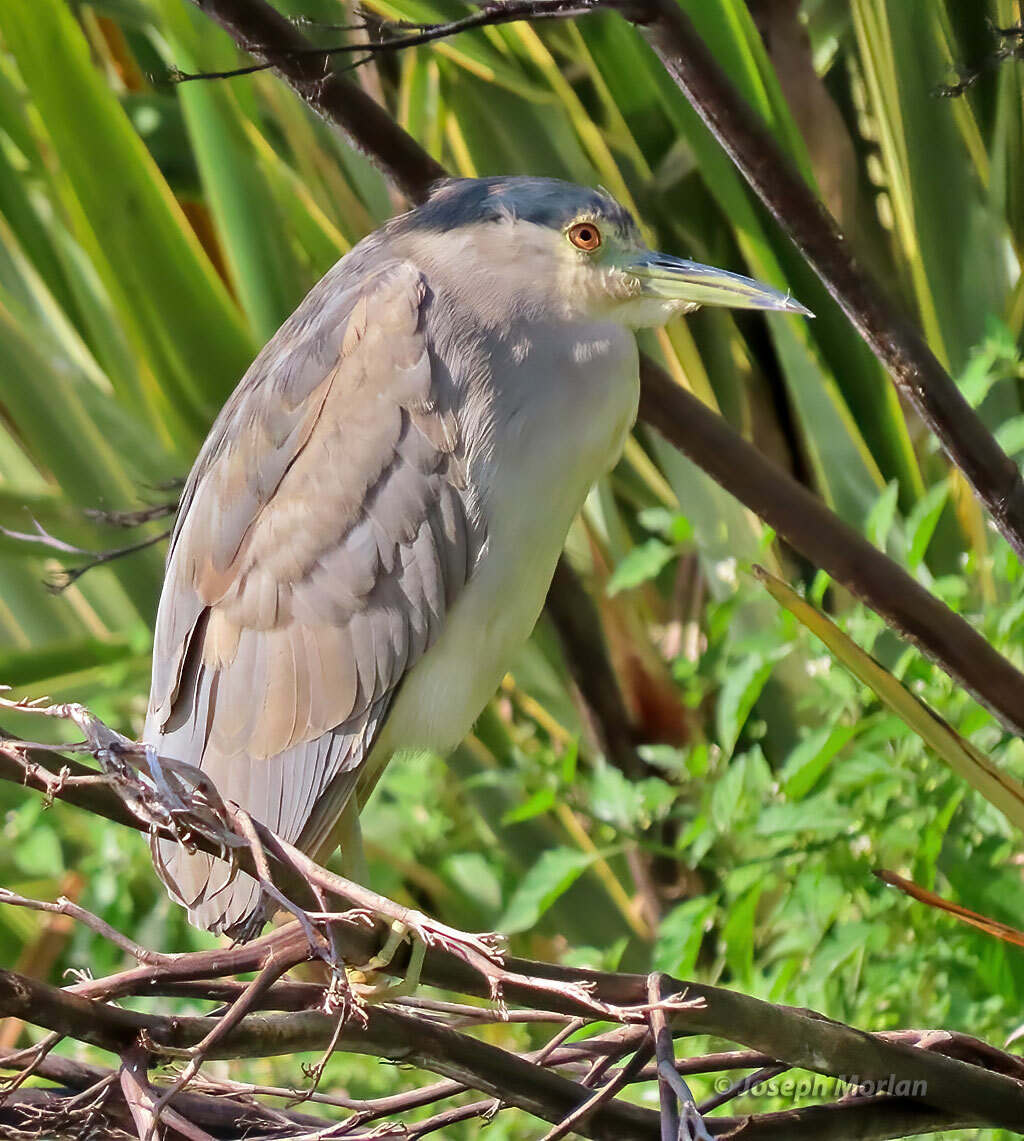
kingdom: Animalia
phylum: Chordata
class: Aves
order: Pelecaniformes
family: Ardeidae
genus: Nycticorax
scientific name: Nycticorax nycticorax
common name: Black-crowned night heron
